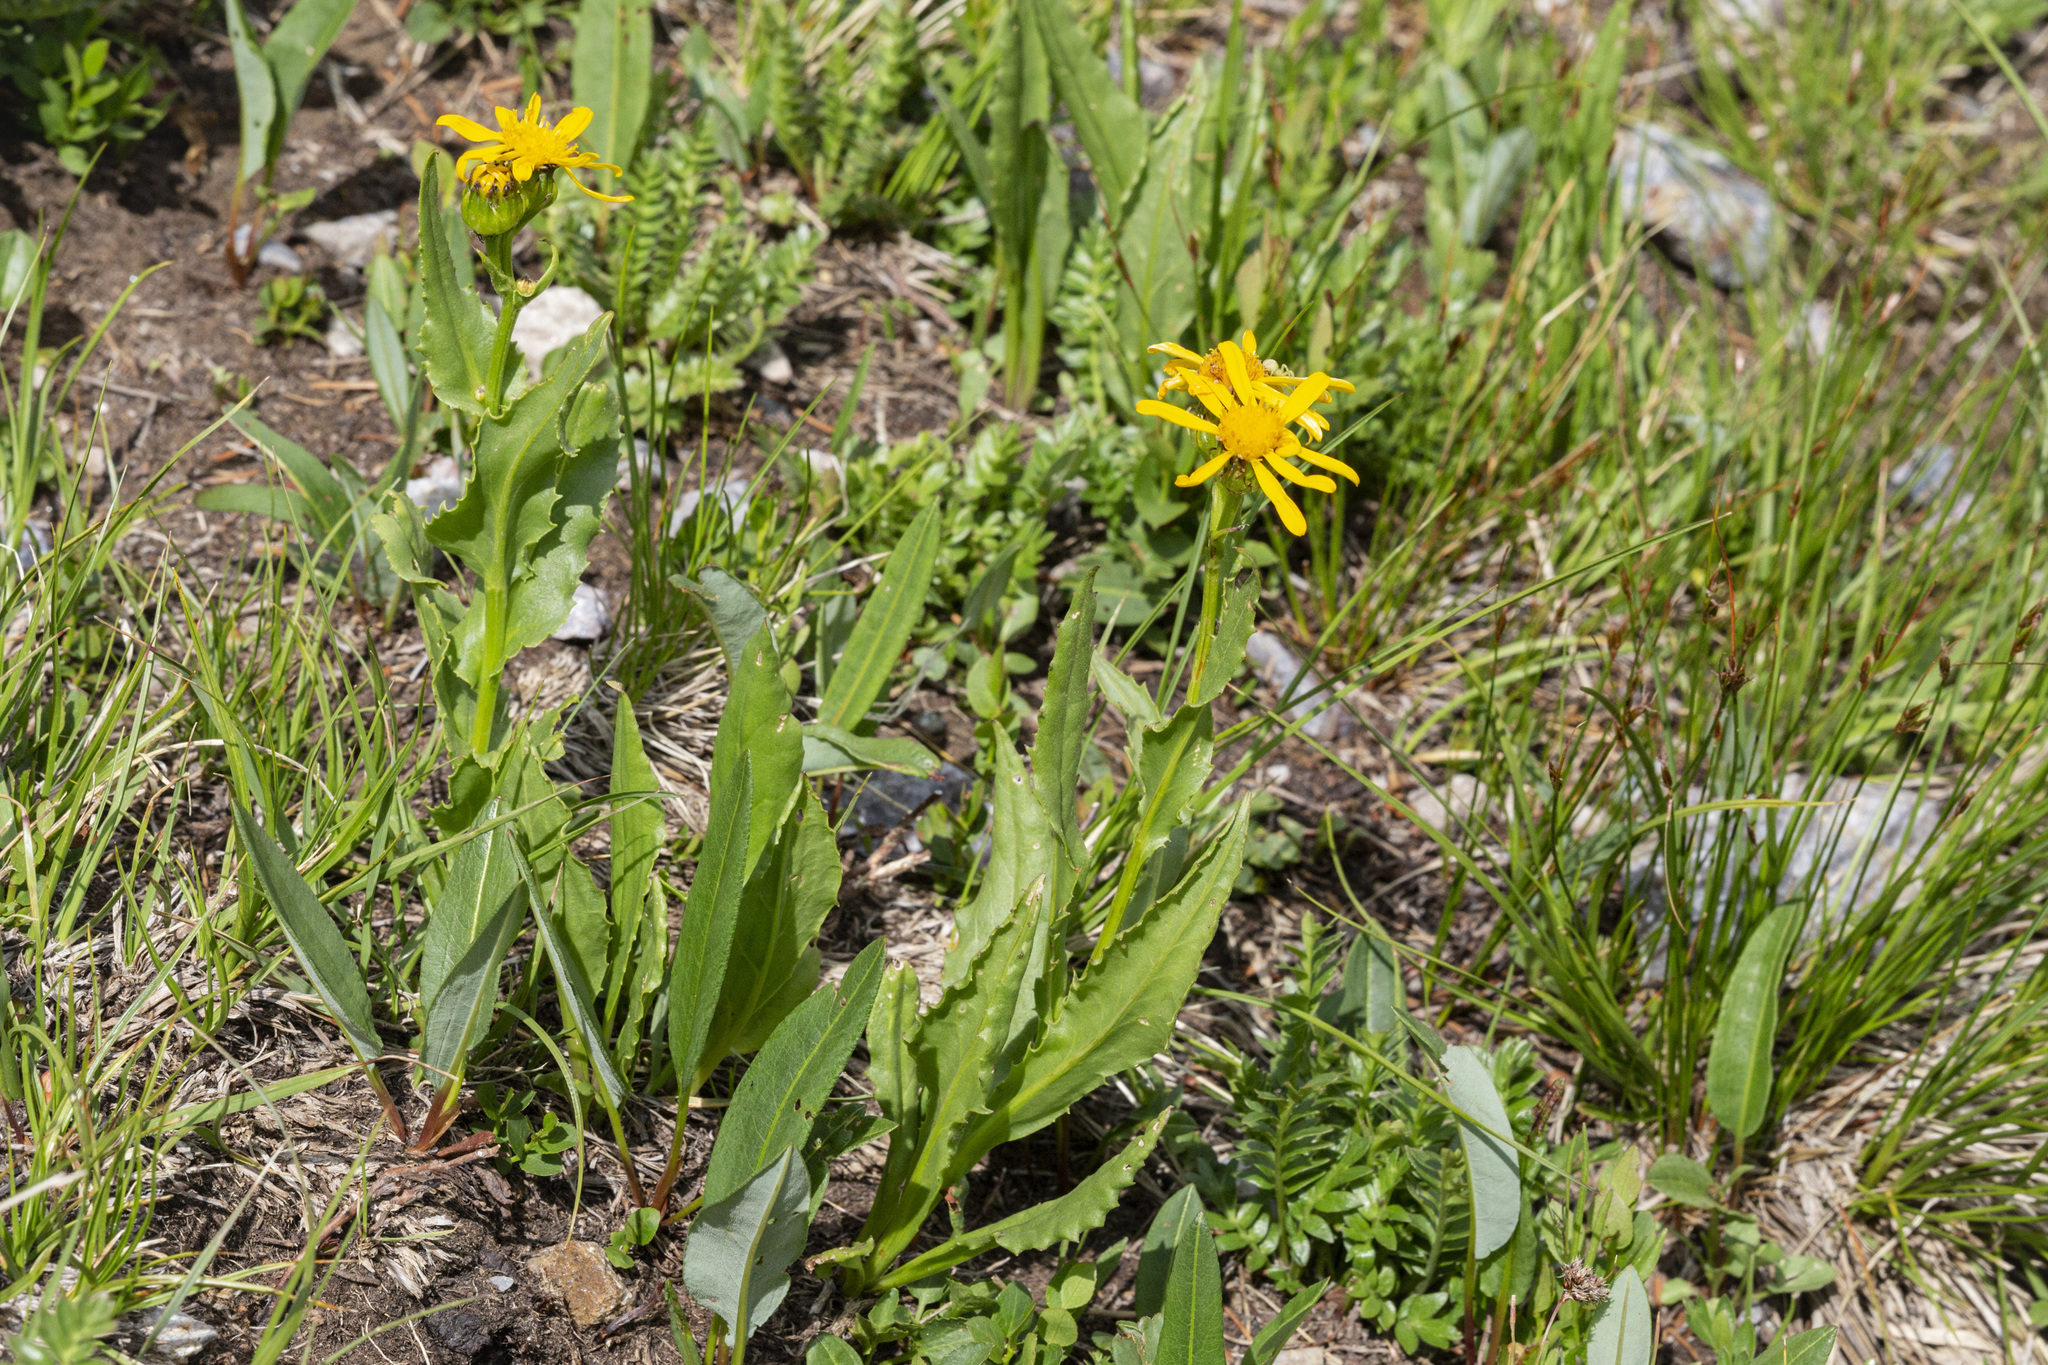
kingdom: Plantae
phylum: Tracheophyta
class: Magnoliopsida
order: Asterales
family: Asteraceae
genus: Senecio
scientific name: Senecio crassulus
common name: Mountain-meadow butterweed
